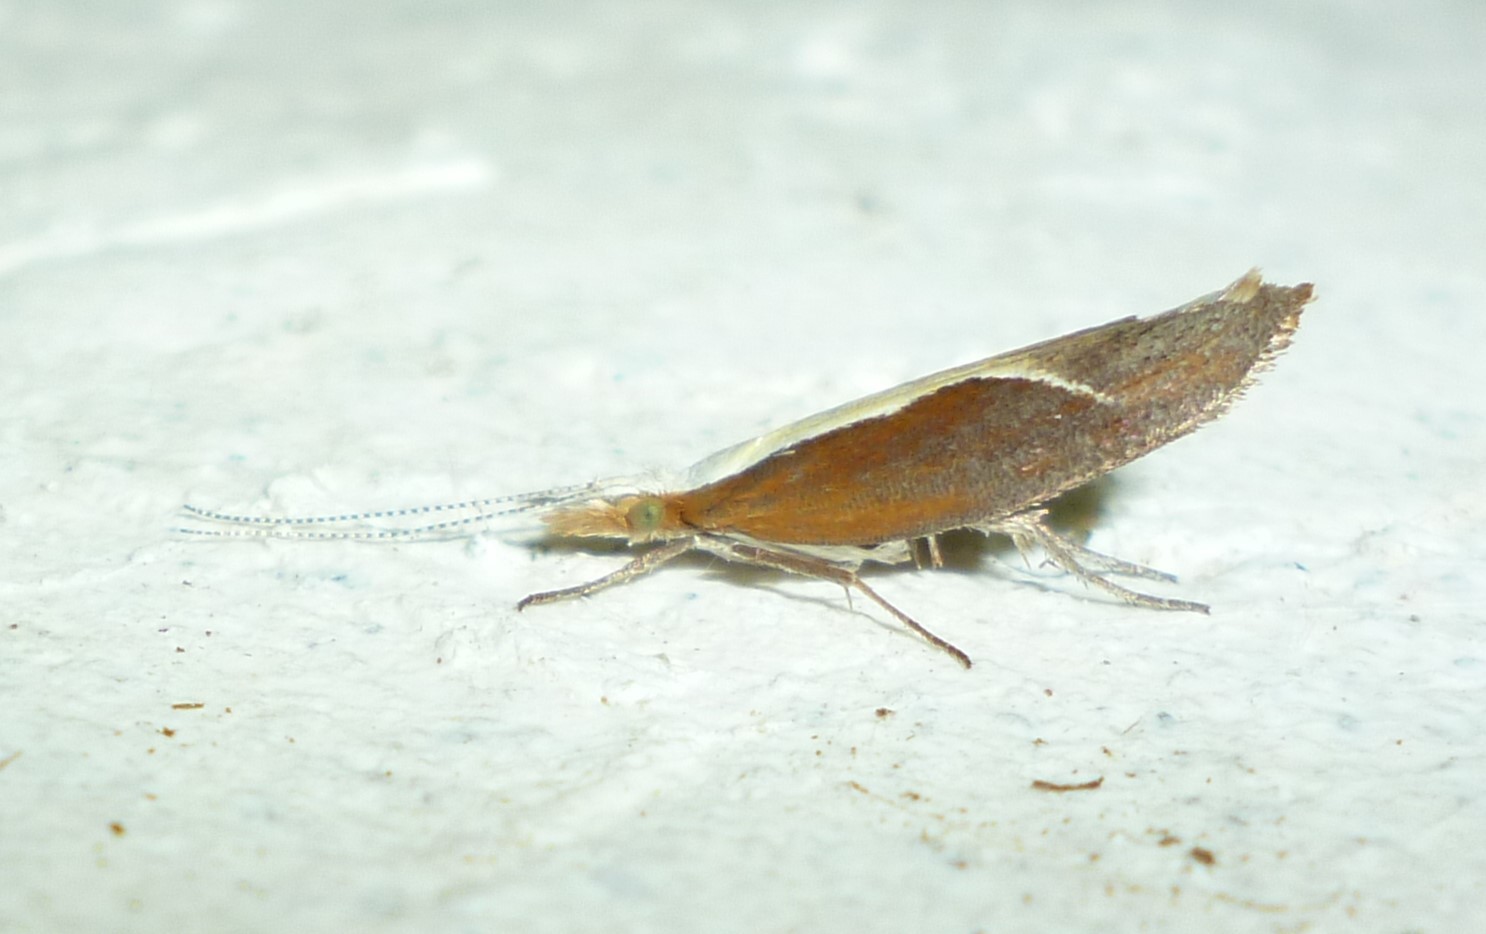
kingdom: Animalia
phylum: Arthropoda
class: Insecta
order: Lepidoptera
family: Ypsolophidae
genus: Ypsolopha
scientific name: Ypsolopha dentella
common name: Honeysuckle moth
